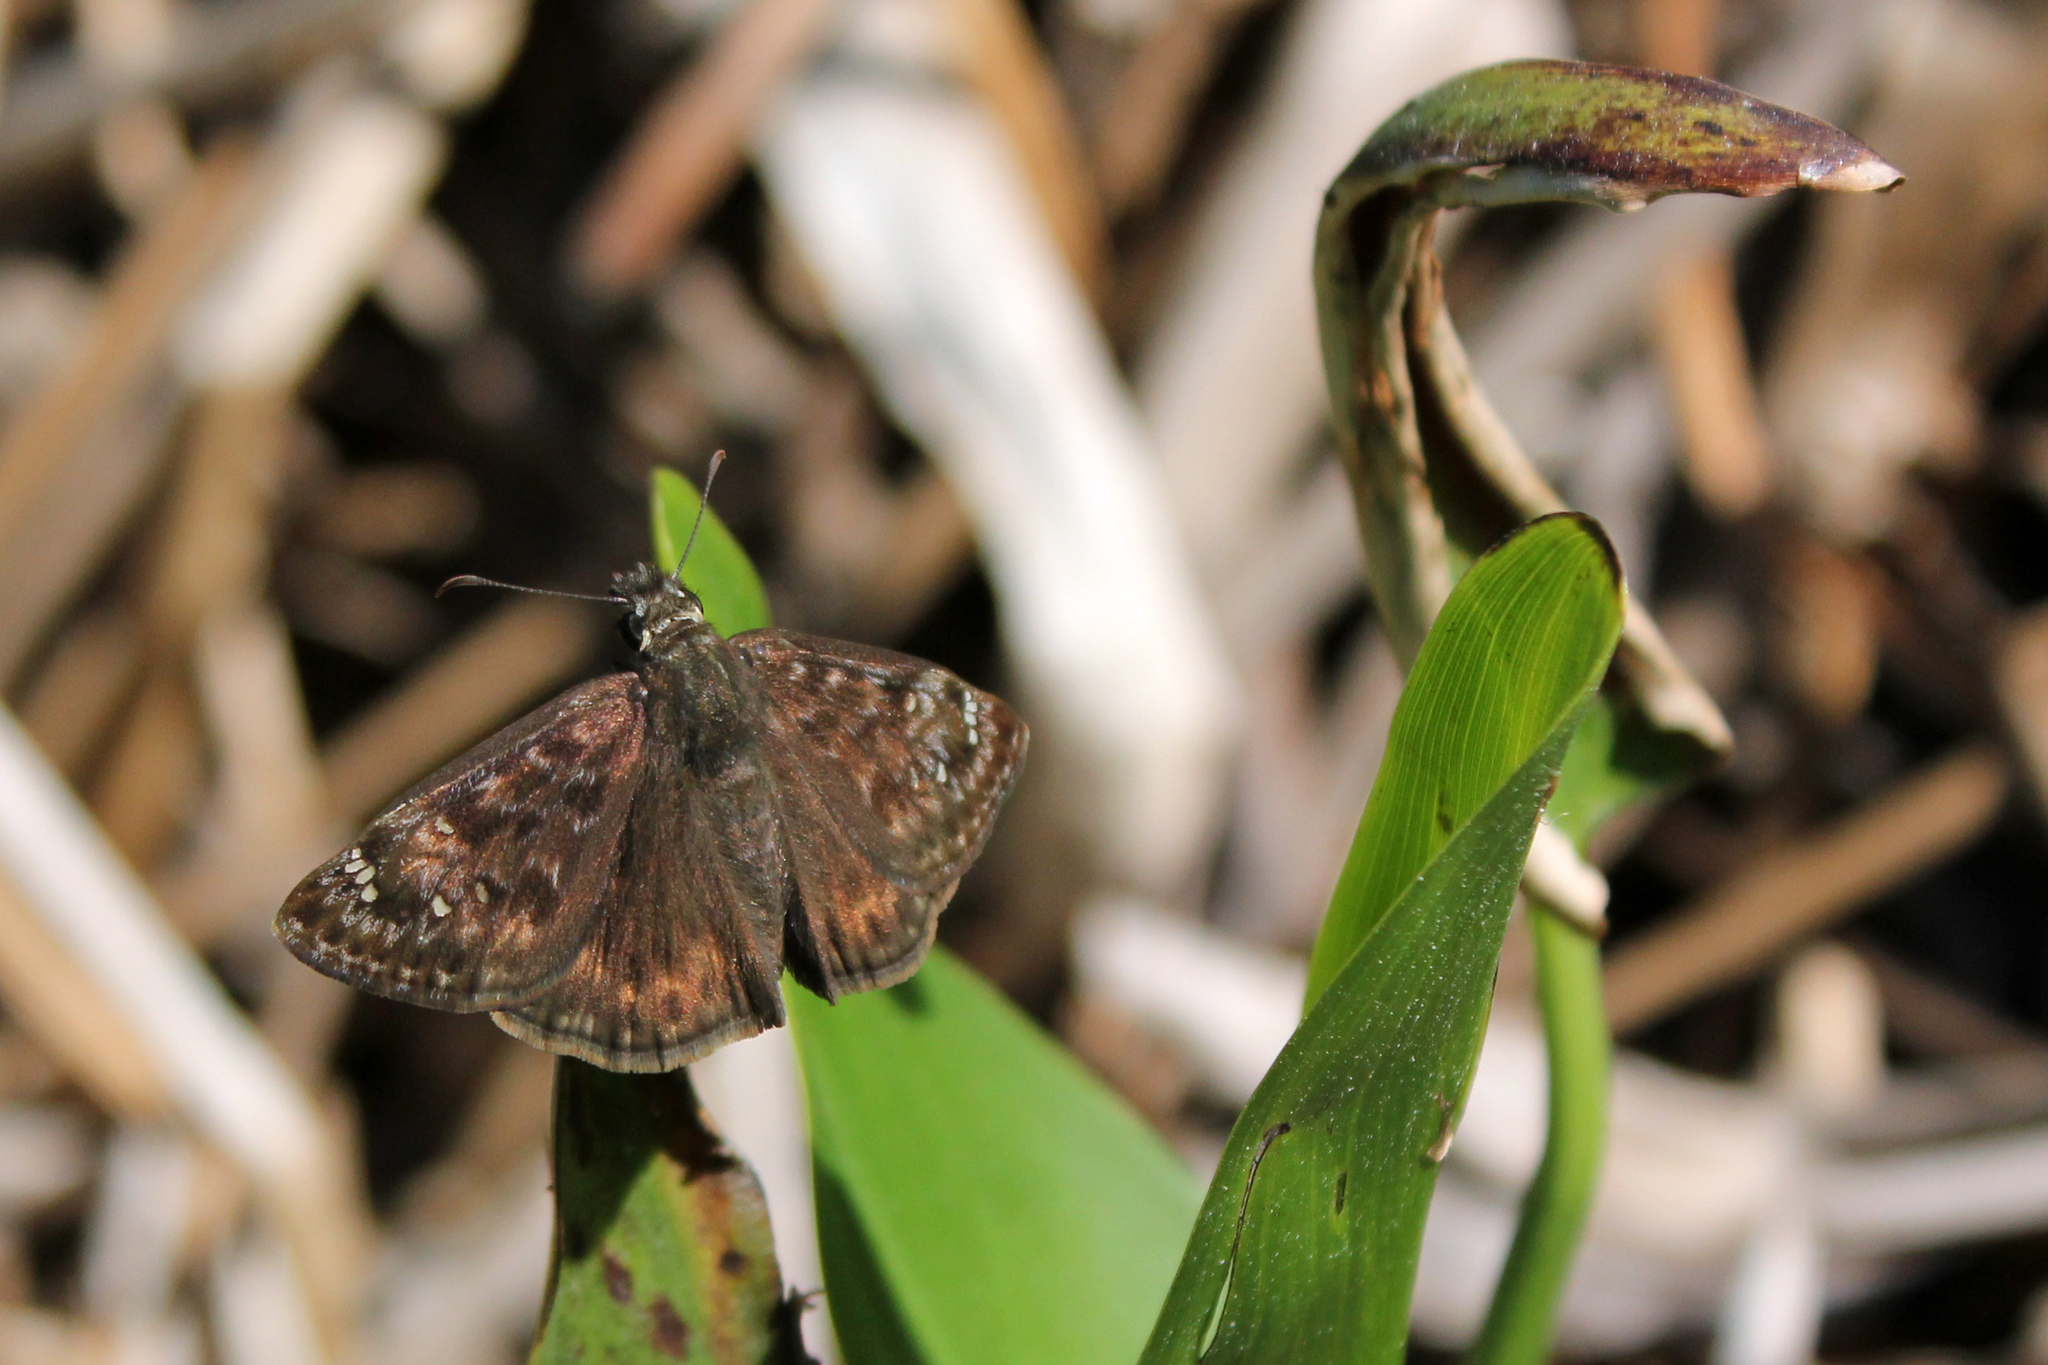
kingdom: Animalia
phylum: Arthropoda
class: Insecta
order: Lepidoptera
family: Hesperiidae
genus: Erynnis
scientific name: Erynnis horatius
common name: Horace's duskywing
